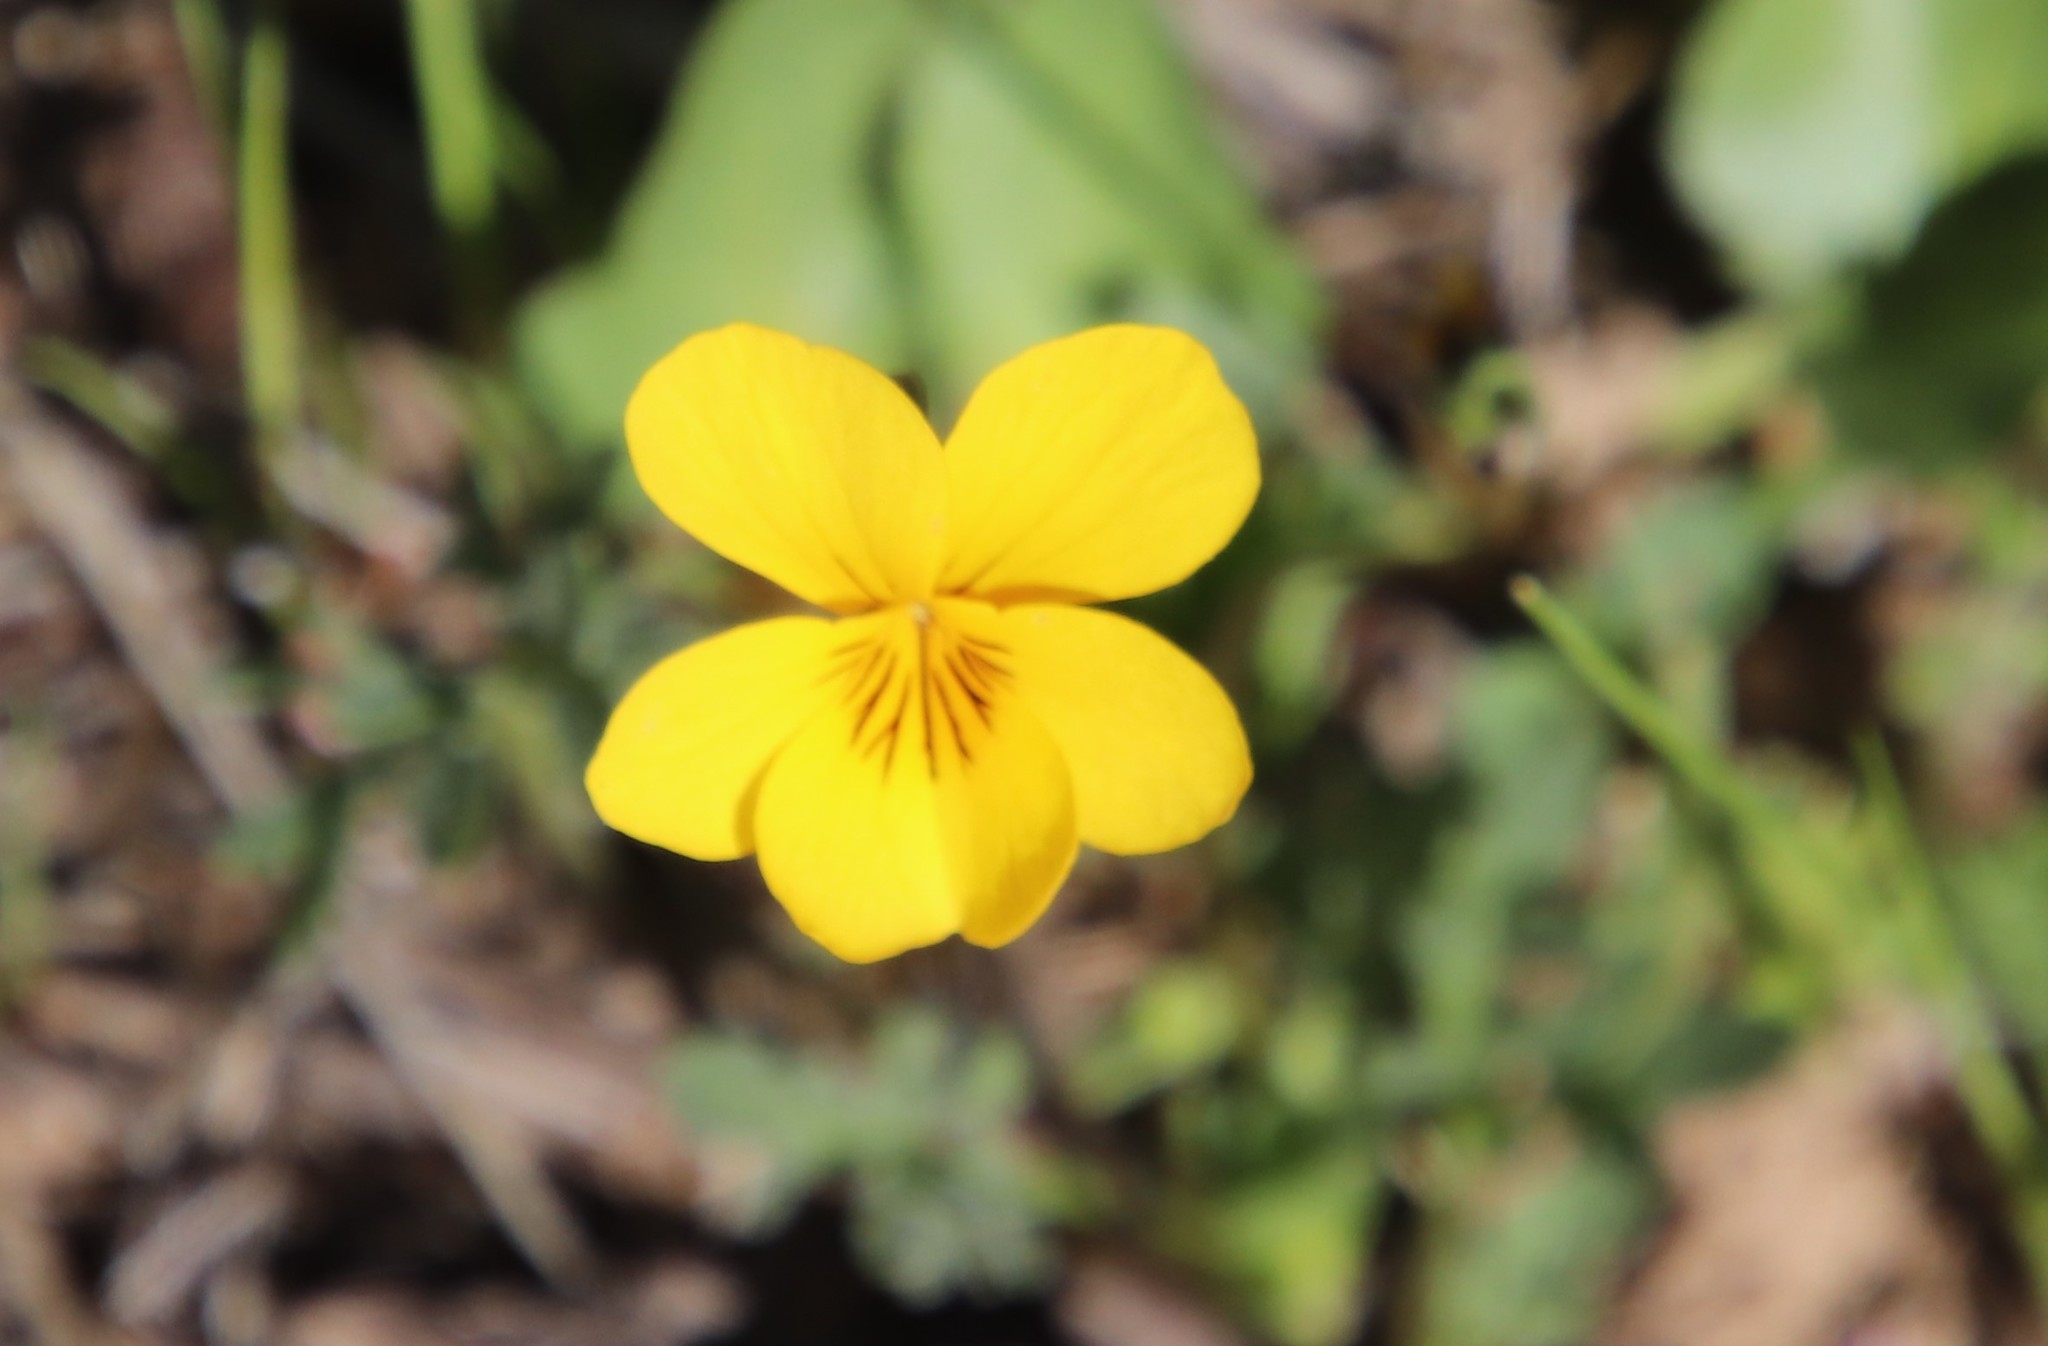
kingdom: Plantae
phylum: Tracheophyta
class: Magnoliopsida
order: Malpighiales
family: Violaceae
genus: Viola
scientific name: Viola douglasii
